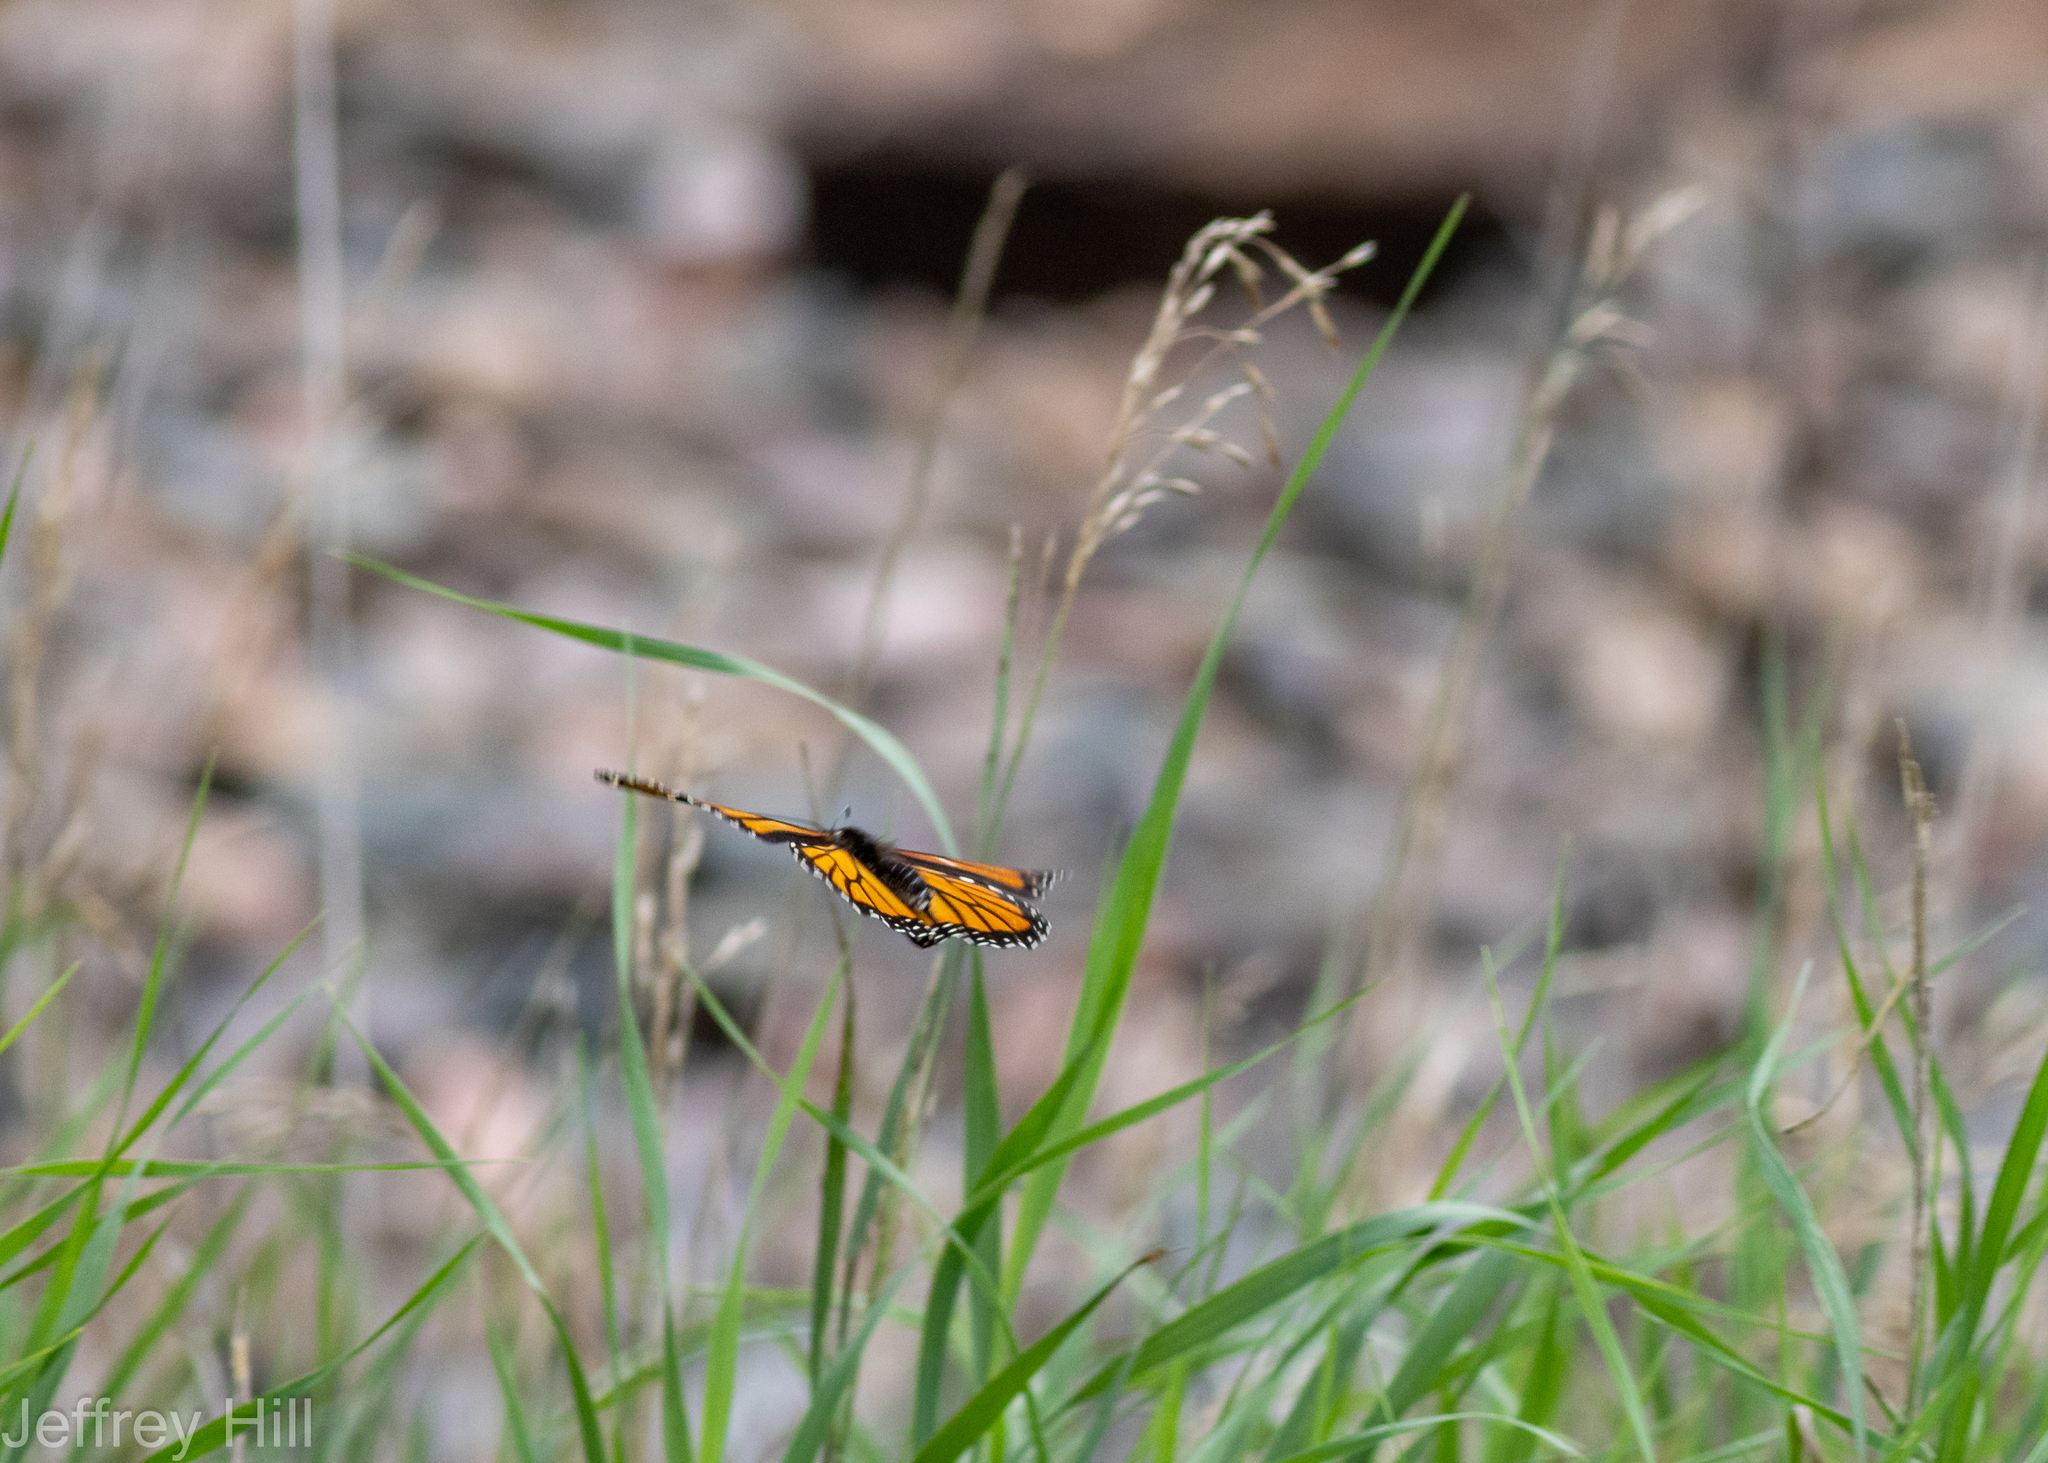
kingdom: Animalia
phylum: Arthropoda
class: Insecta
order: Lepidoptera
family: Nymphalidae
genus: Danaus
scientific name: Danaus plexippus
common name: Monarch
